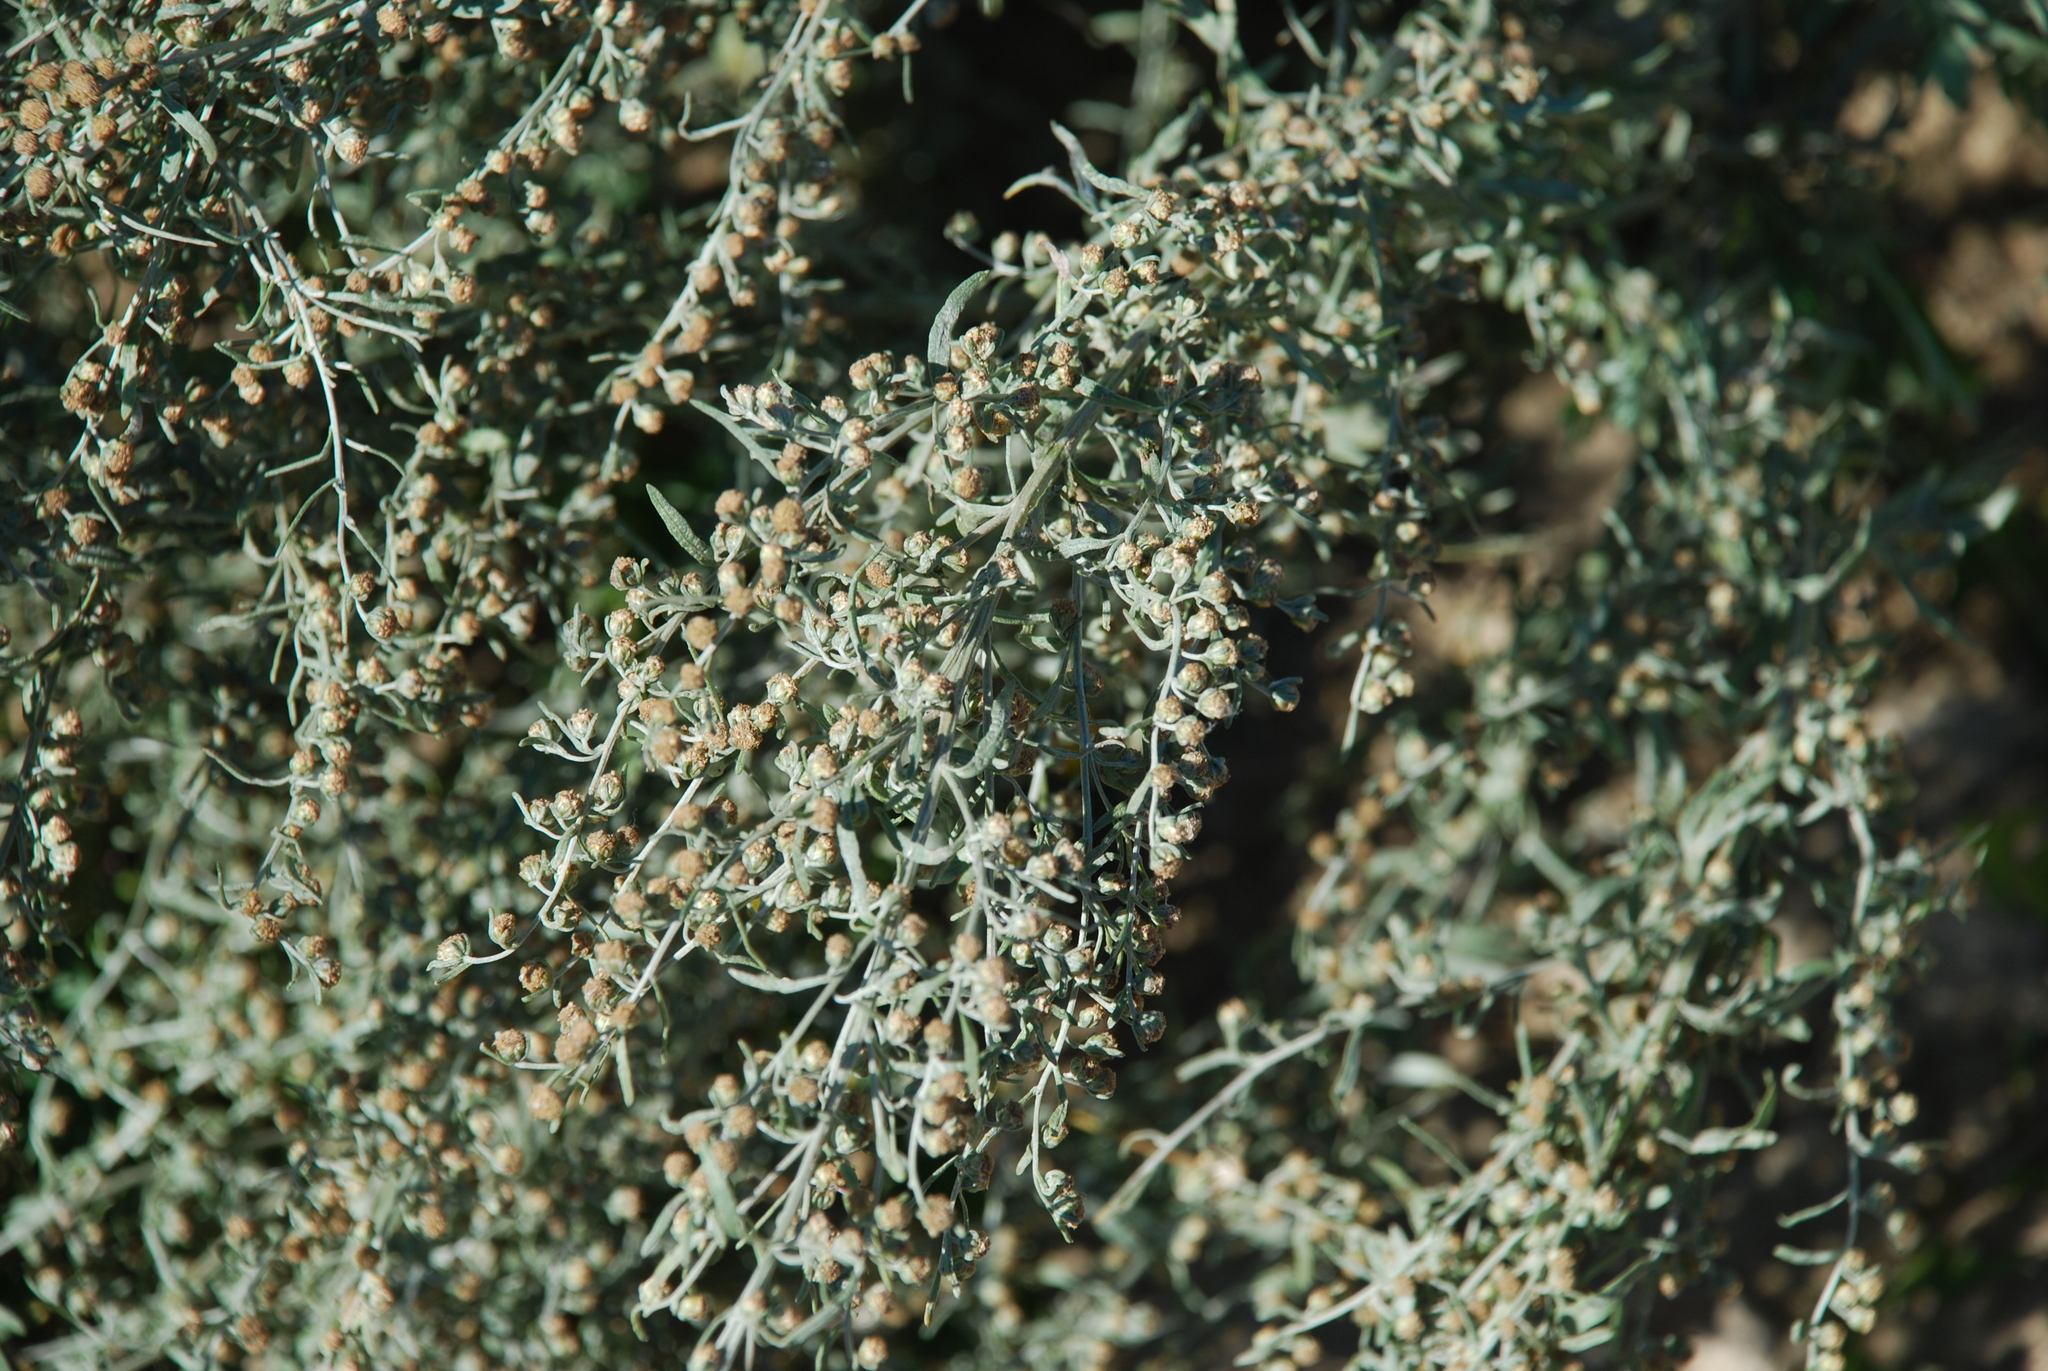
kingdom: Plantae
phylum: Tracheophyta
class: Magnoliopsida
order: Asterales
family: Asteraceae
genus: Artemisia
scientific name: Artemisia absinthium
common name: Wormwood
